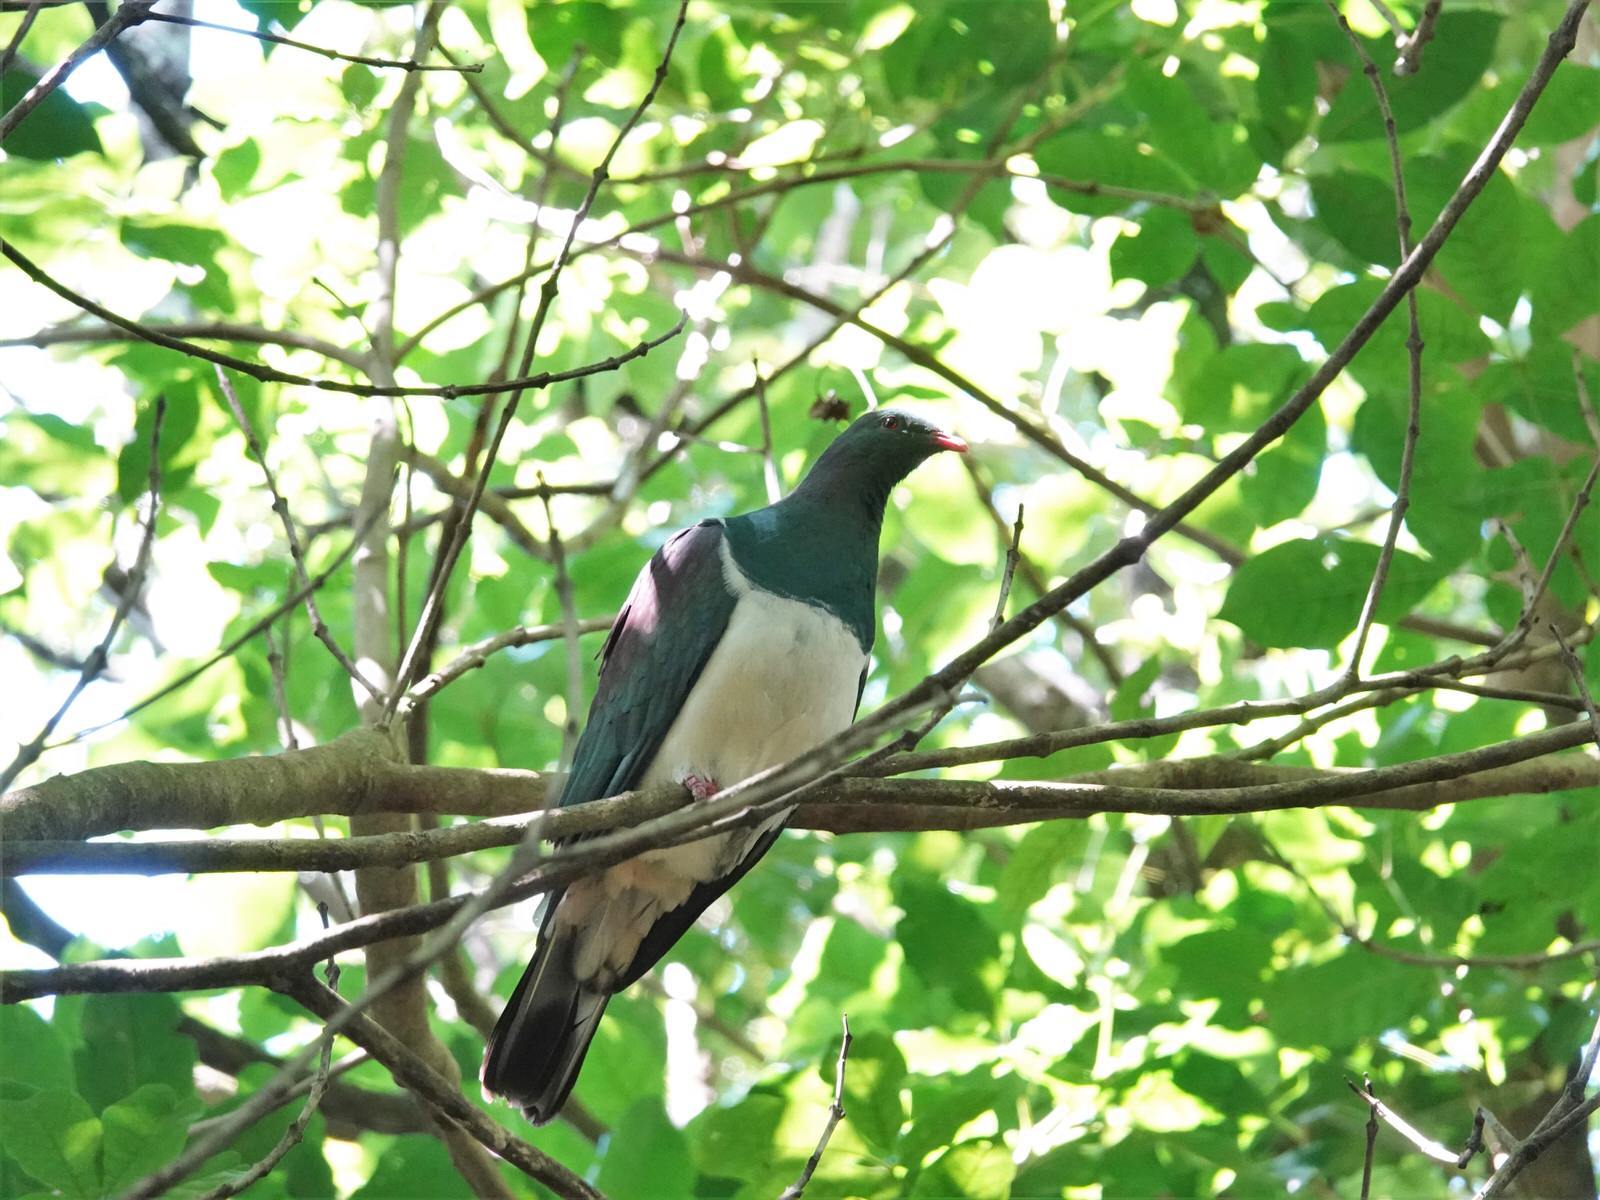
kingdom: Animalia
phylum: Chordata
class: Aves
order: Columbiformes
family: Columbidae
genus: Hemiphaga
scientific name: Hemiphaga novaeseelandiae
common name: New zealand pigeon
